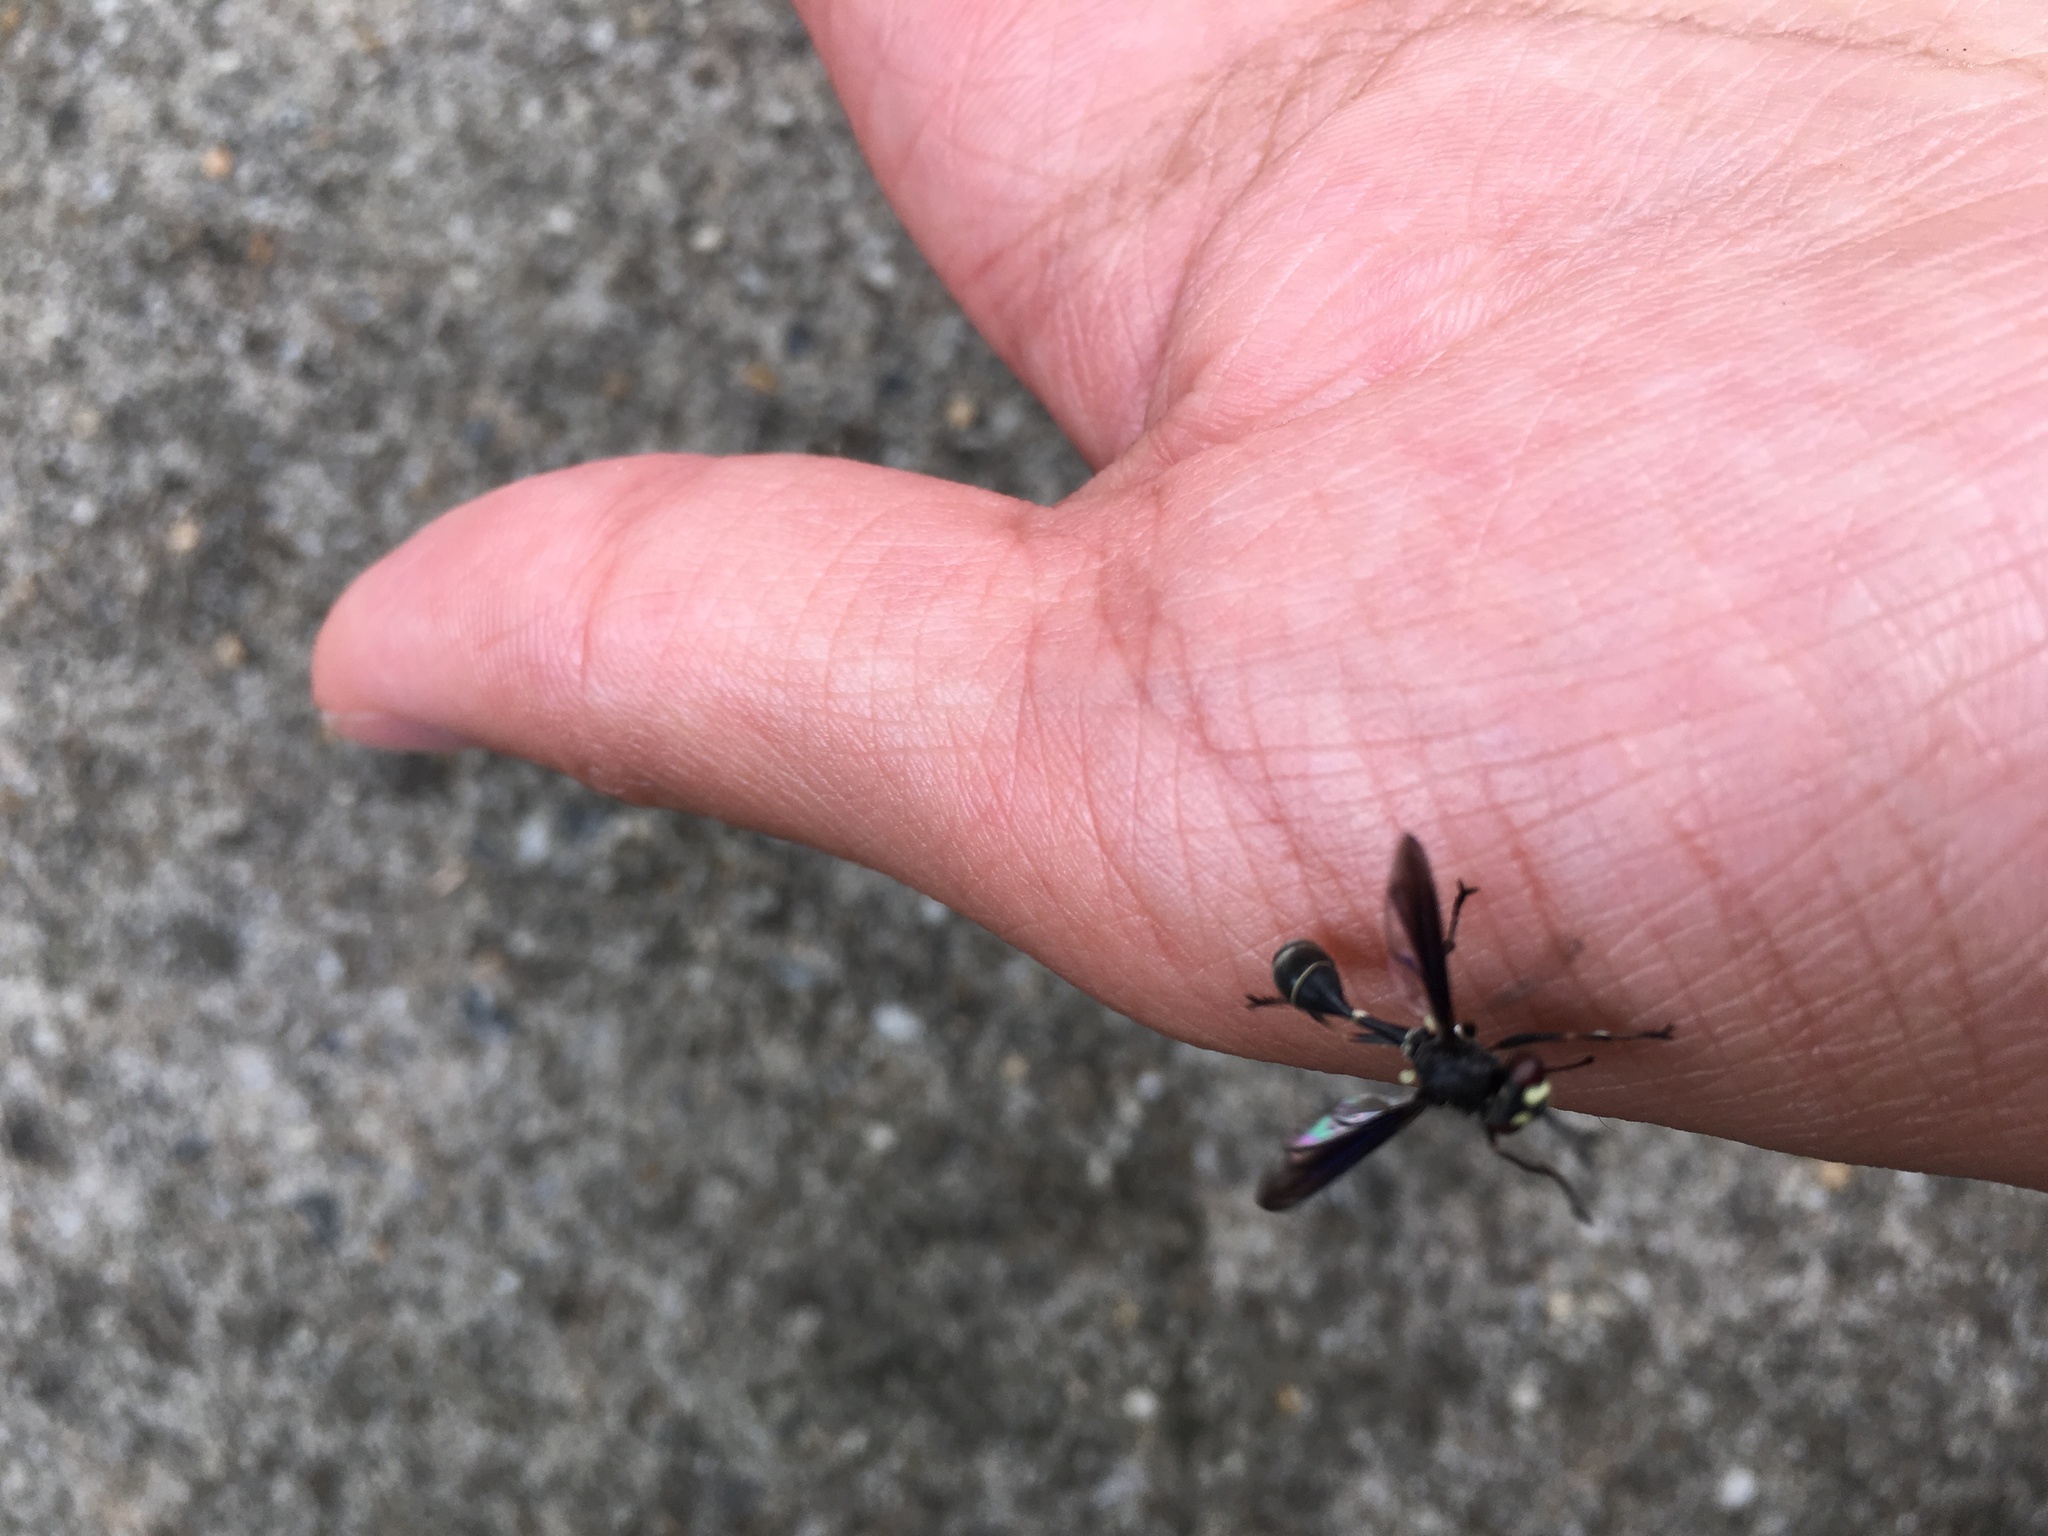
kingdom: Animalia
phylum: Arthropoda
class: Insecta
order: Diptera
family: Conopidae
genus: Physocephala
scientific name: Physocephala tibialis
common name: Common eastern physocephala
